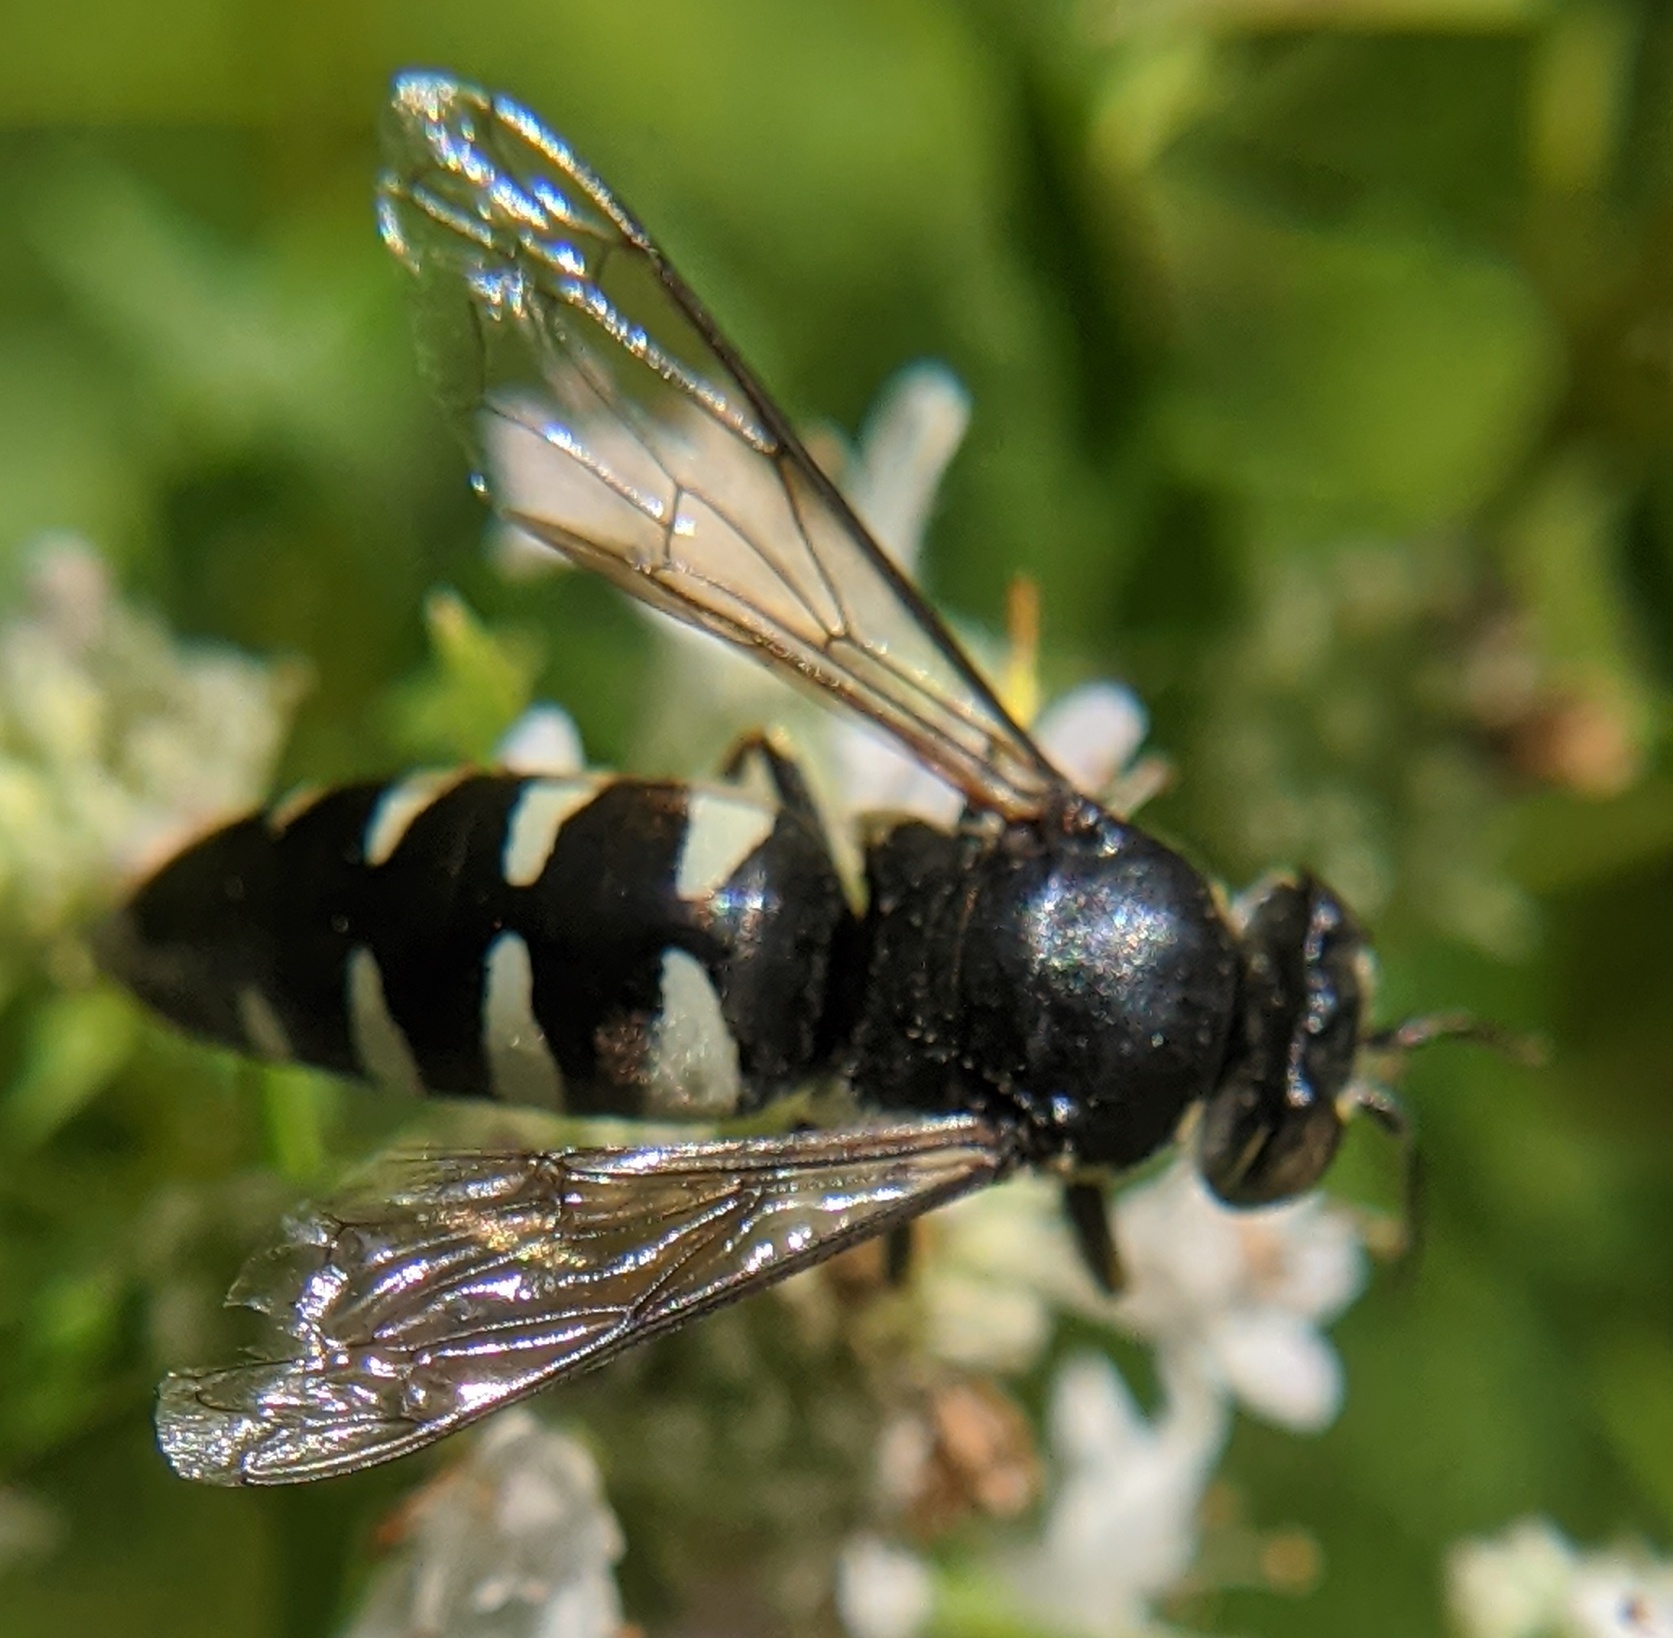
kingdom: Animalia
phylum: Arthropoda
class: Insecta
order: Hymenoptera
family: Crabronidae
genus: Bicyrtes
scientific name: Bicyrtes quadrifasciatus
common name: Four-banded stink bug hunter wasp
